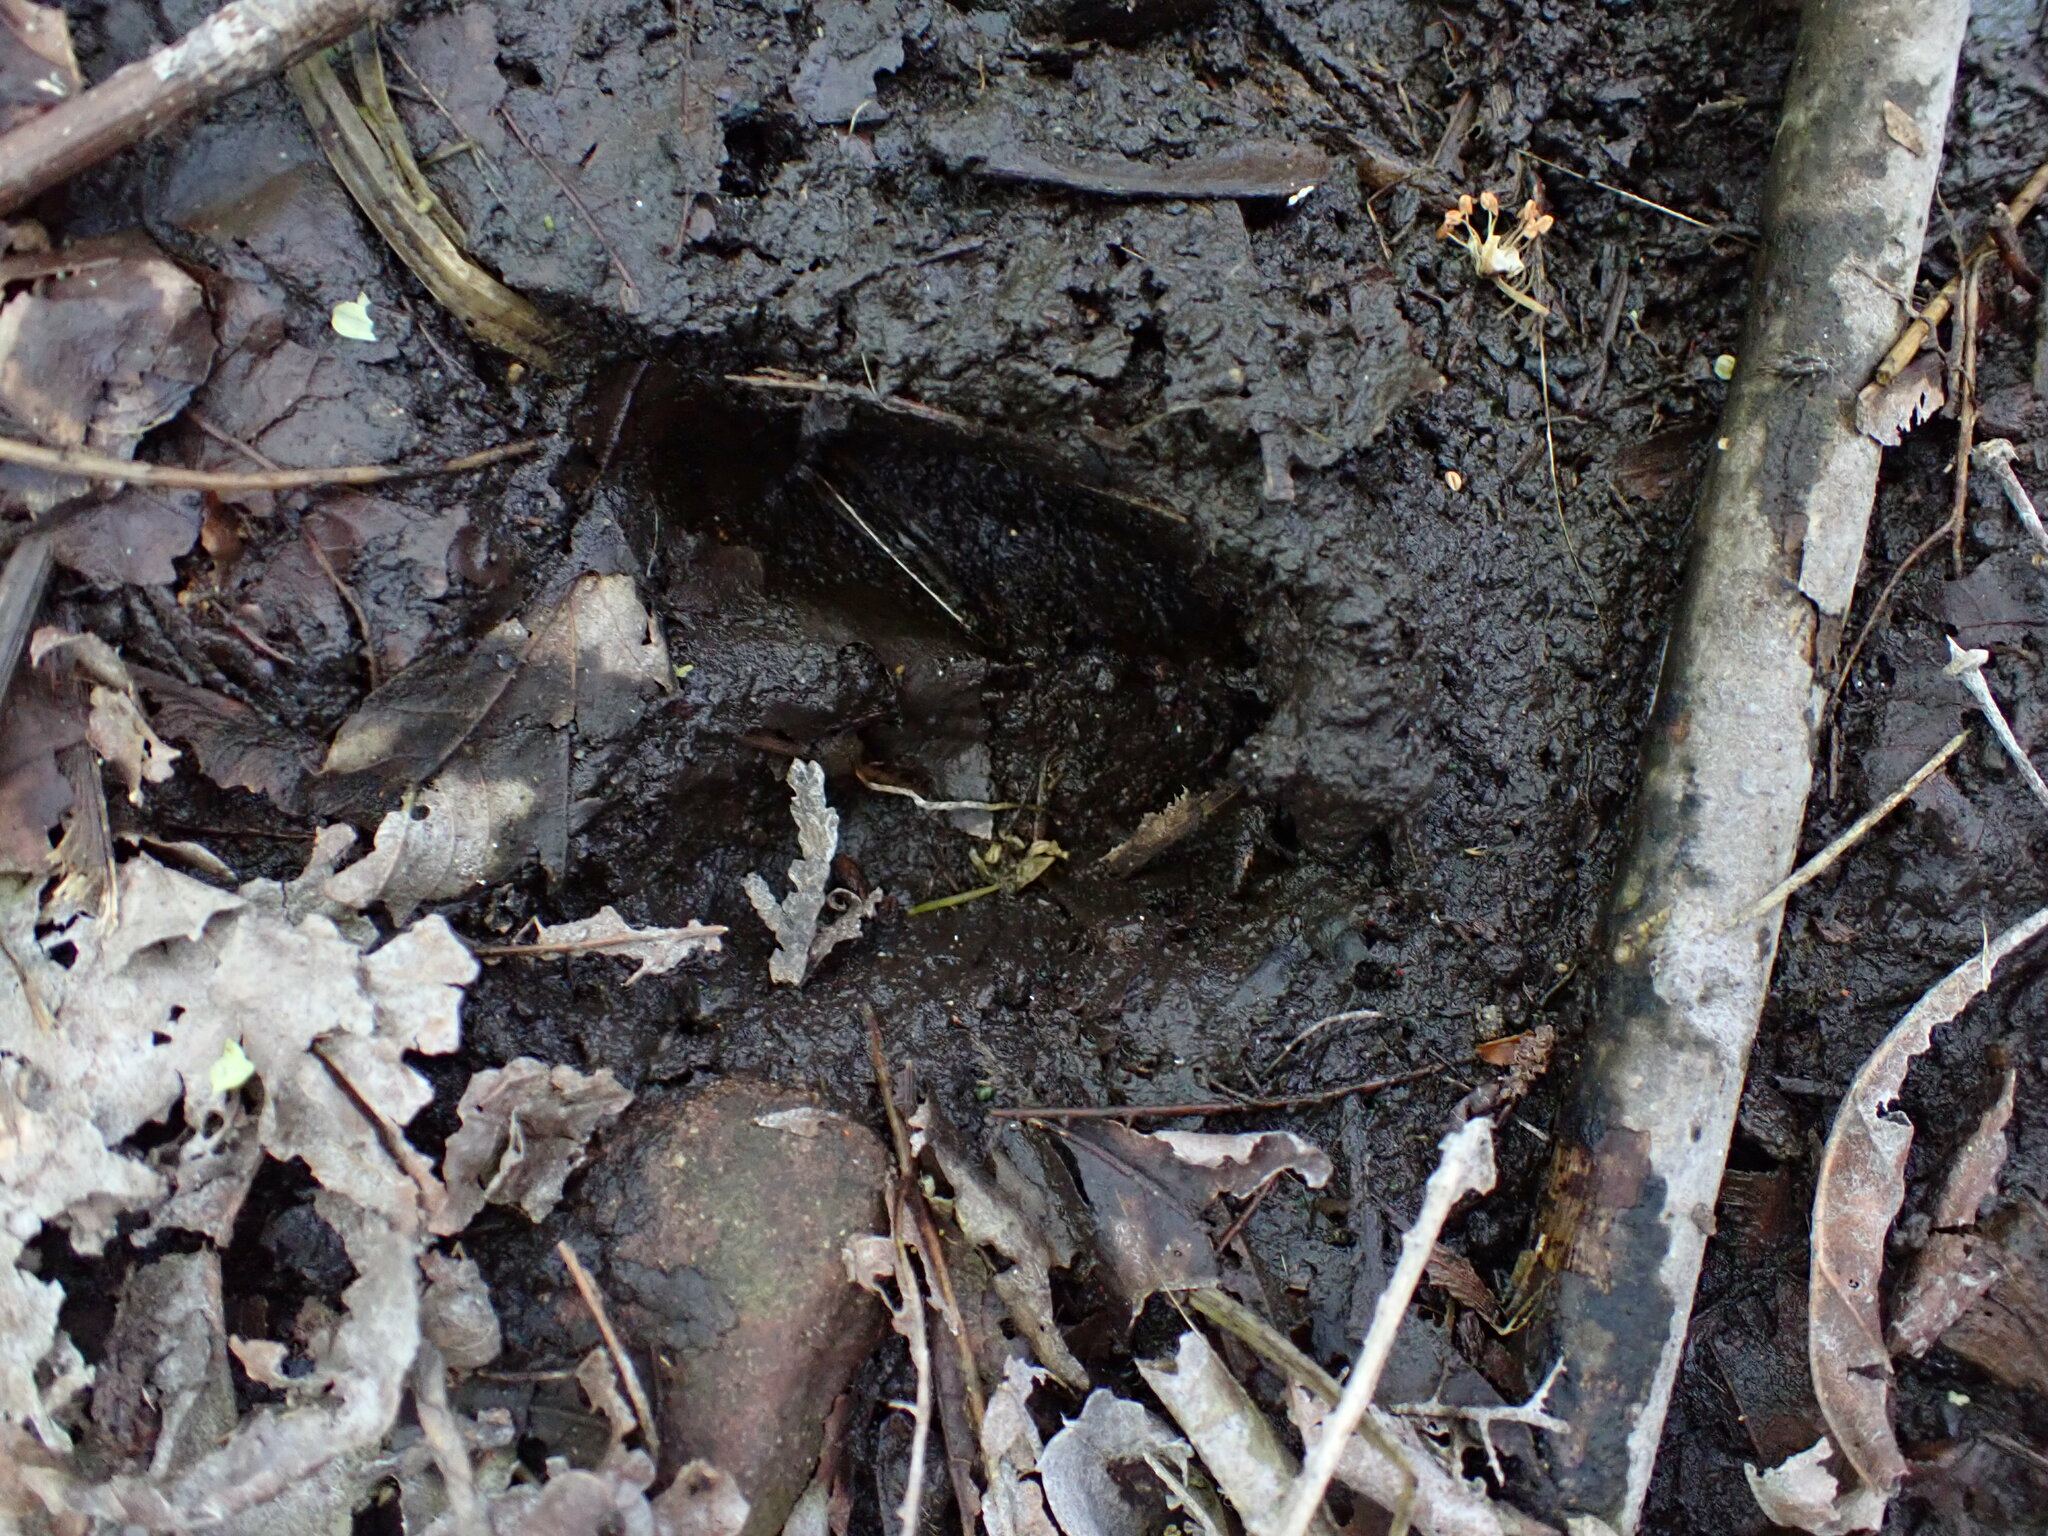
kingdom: Animalia
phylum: Chordata
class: Mammalia
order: Artiodactyla
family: Cervidae
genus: Odocoileus
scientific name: Odocoileus hemionus
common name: Mule deer
